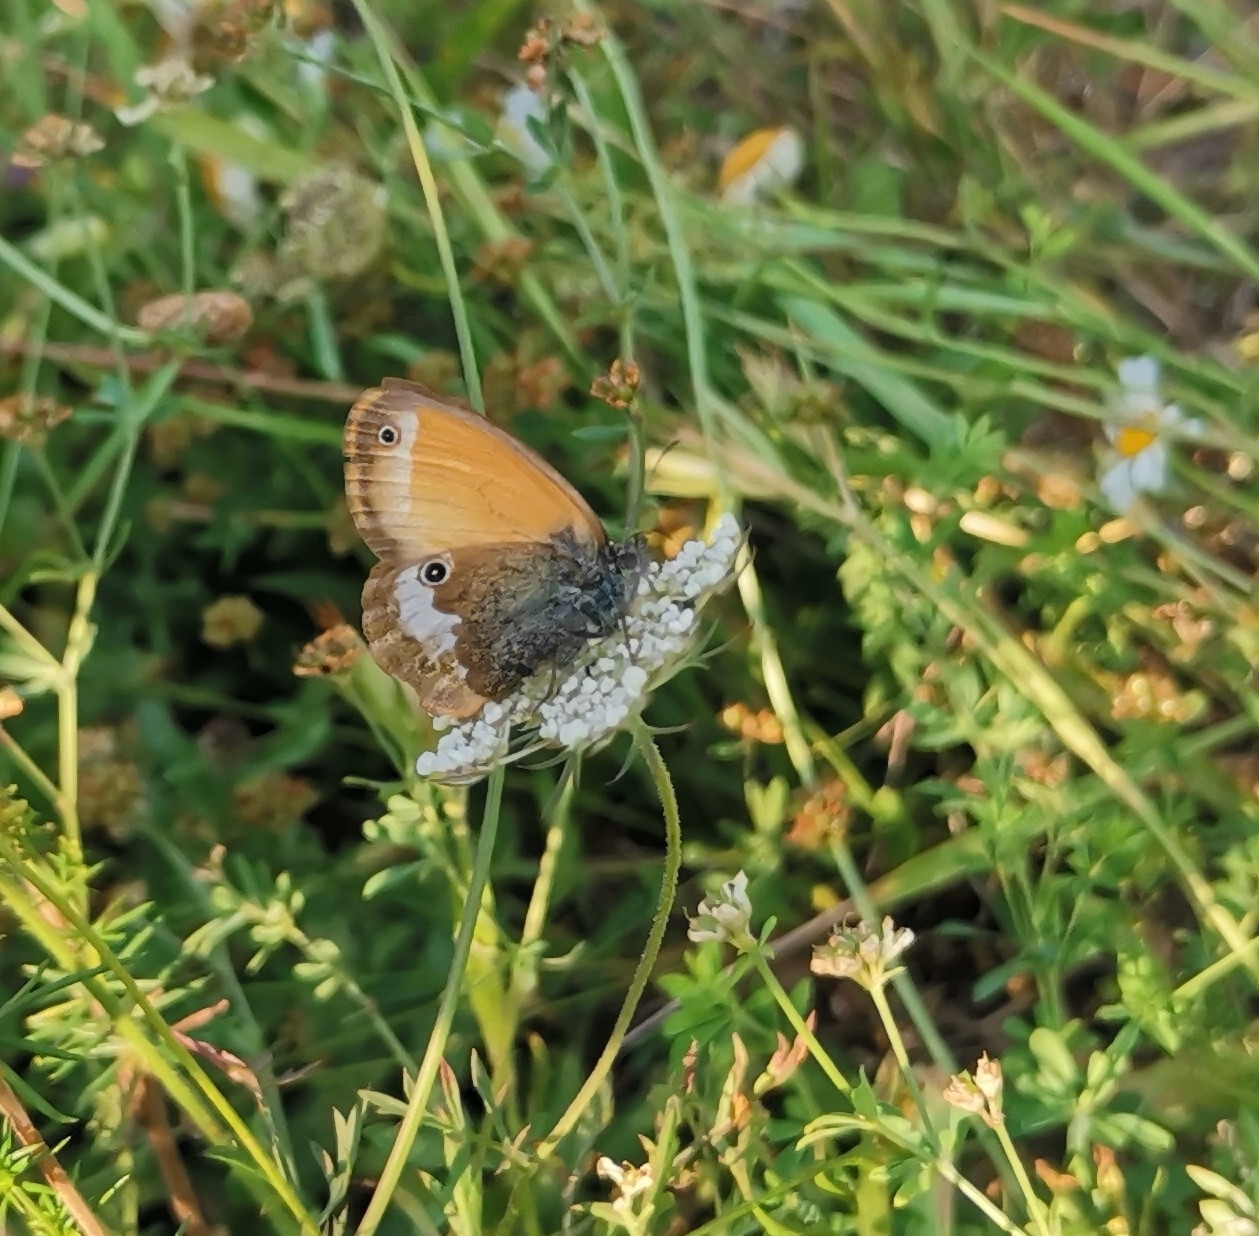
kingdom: Animalia
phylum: Arthropoda
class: Insecta
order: Lepidoptera
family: Nymphalidae
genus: Coenonympha
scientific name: Coenonympha arcania
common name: Pearly heath
